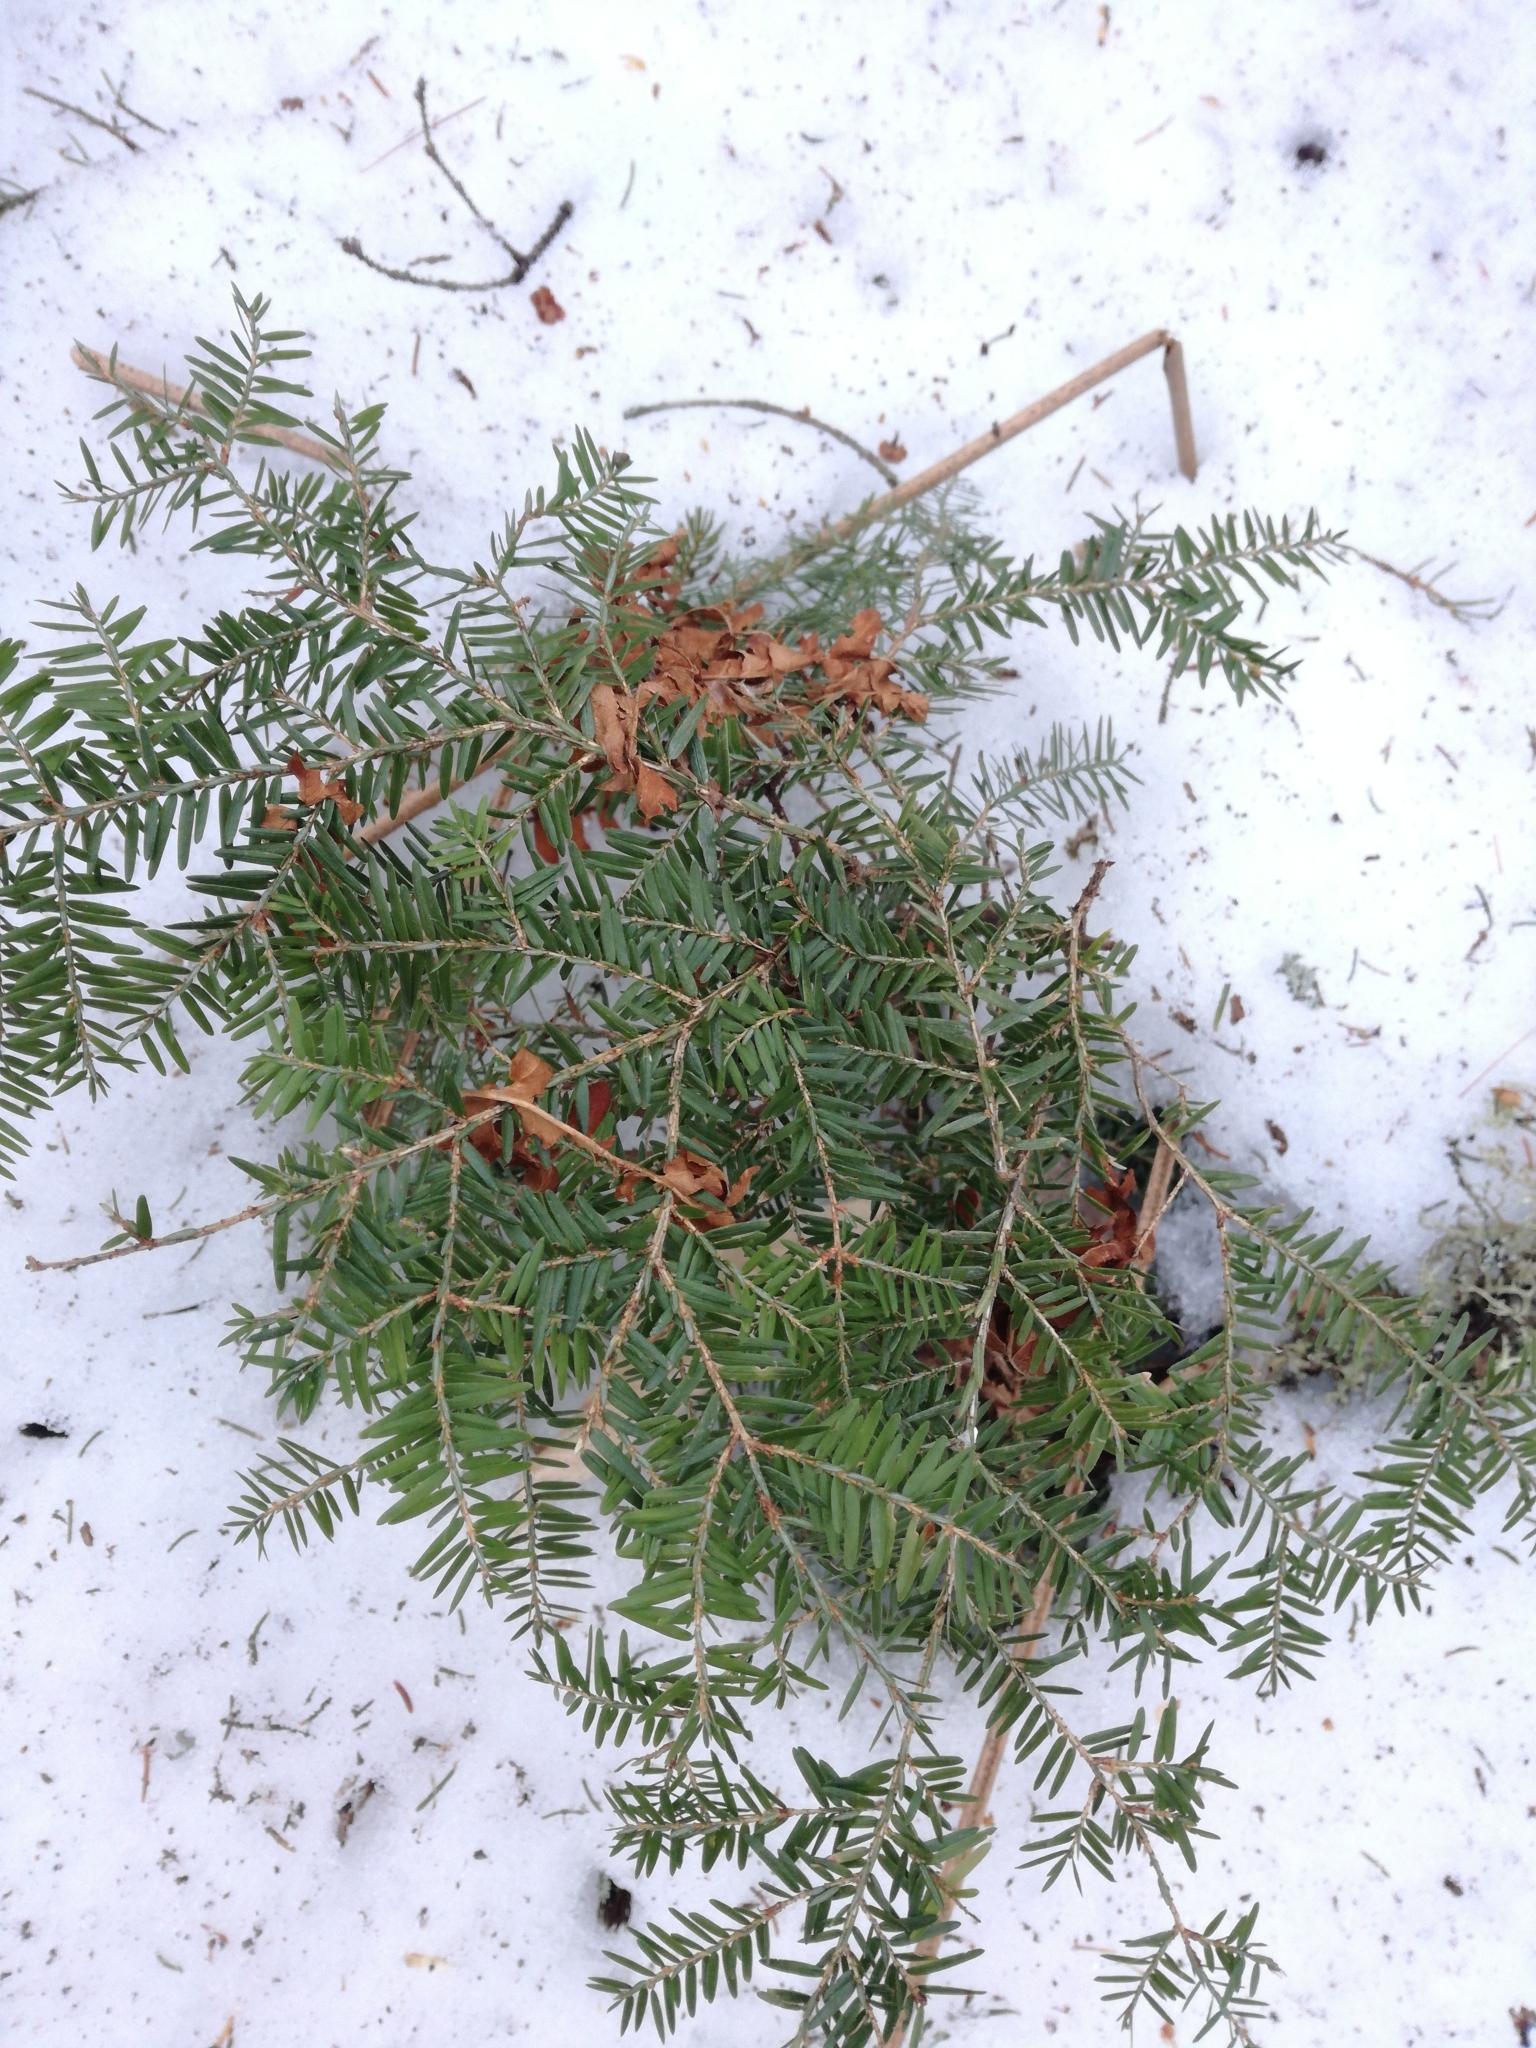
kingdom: Plantae
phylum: Tracheophyta
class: Pinopsida
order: Pinales
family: Pinaceae
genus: Tsuga
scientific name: Tsuga canadensis
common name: Eastern hemlock
